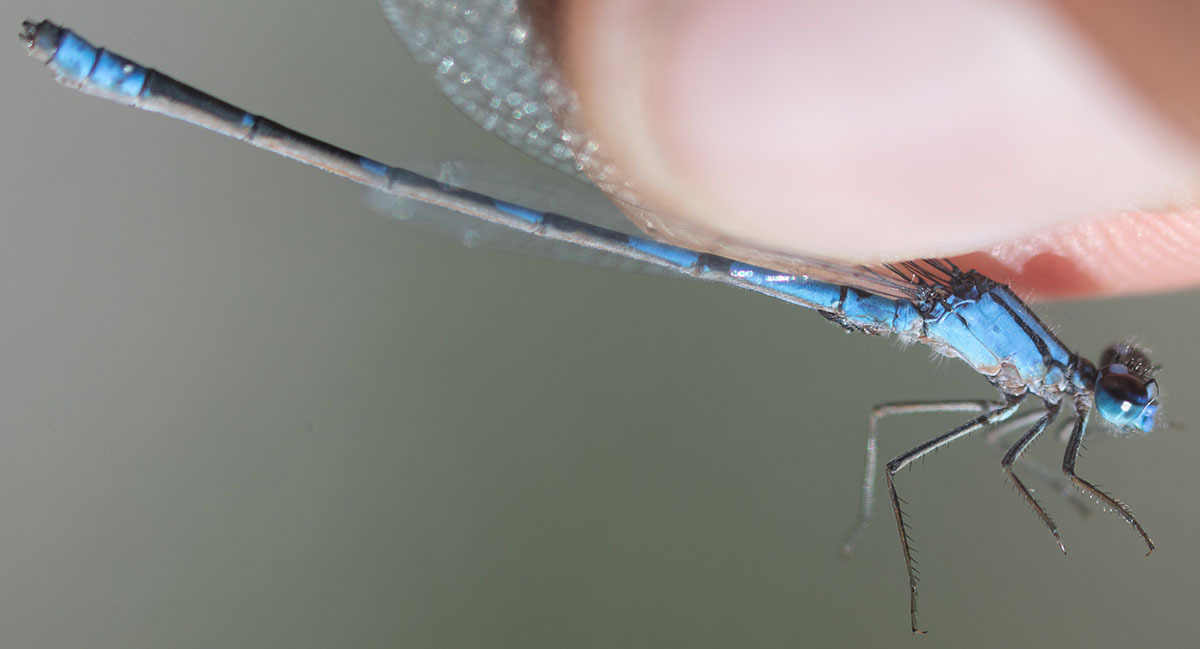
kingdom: Animalia
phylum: Arthropoda
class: Insecta
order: Odonata
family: Coenagrionidae
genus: Enallagma
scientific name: Enallagma praevarum
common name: Arroyo bluet
